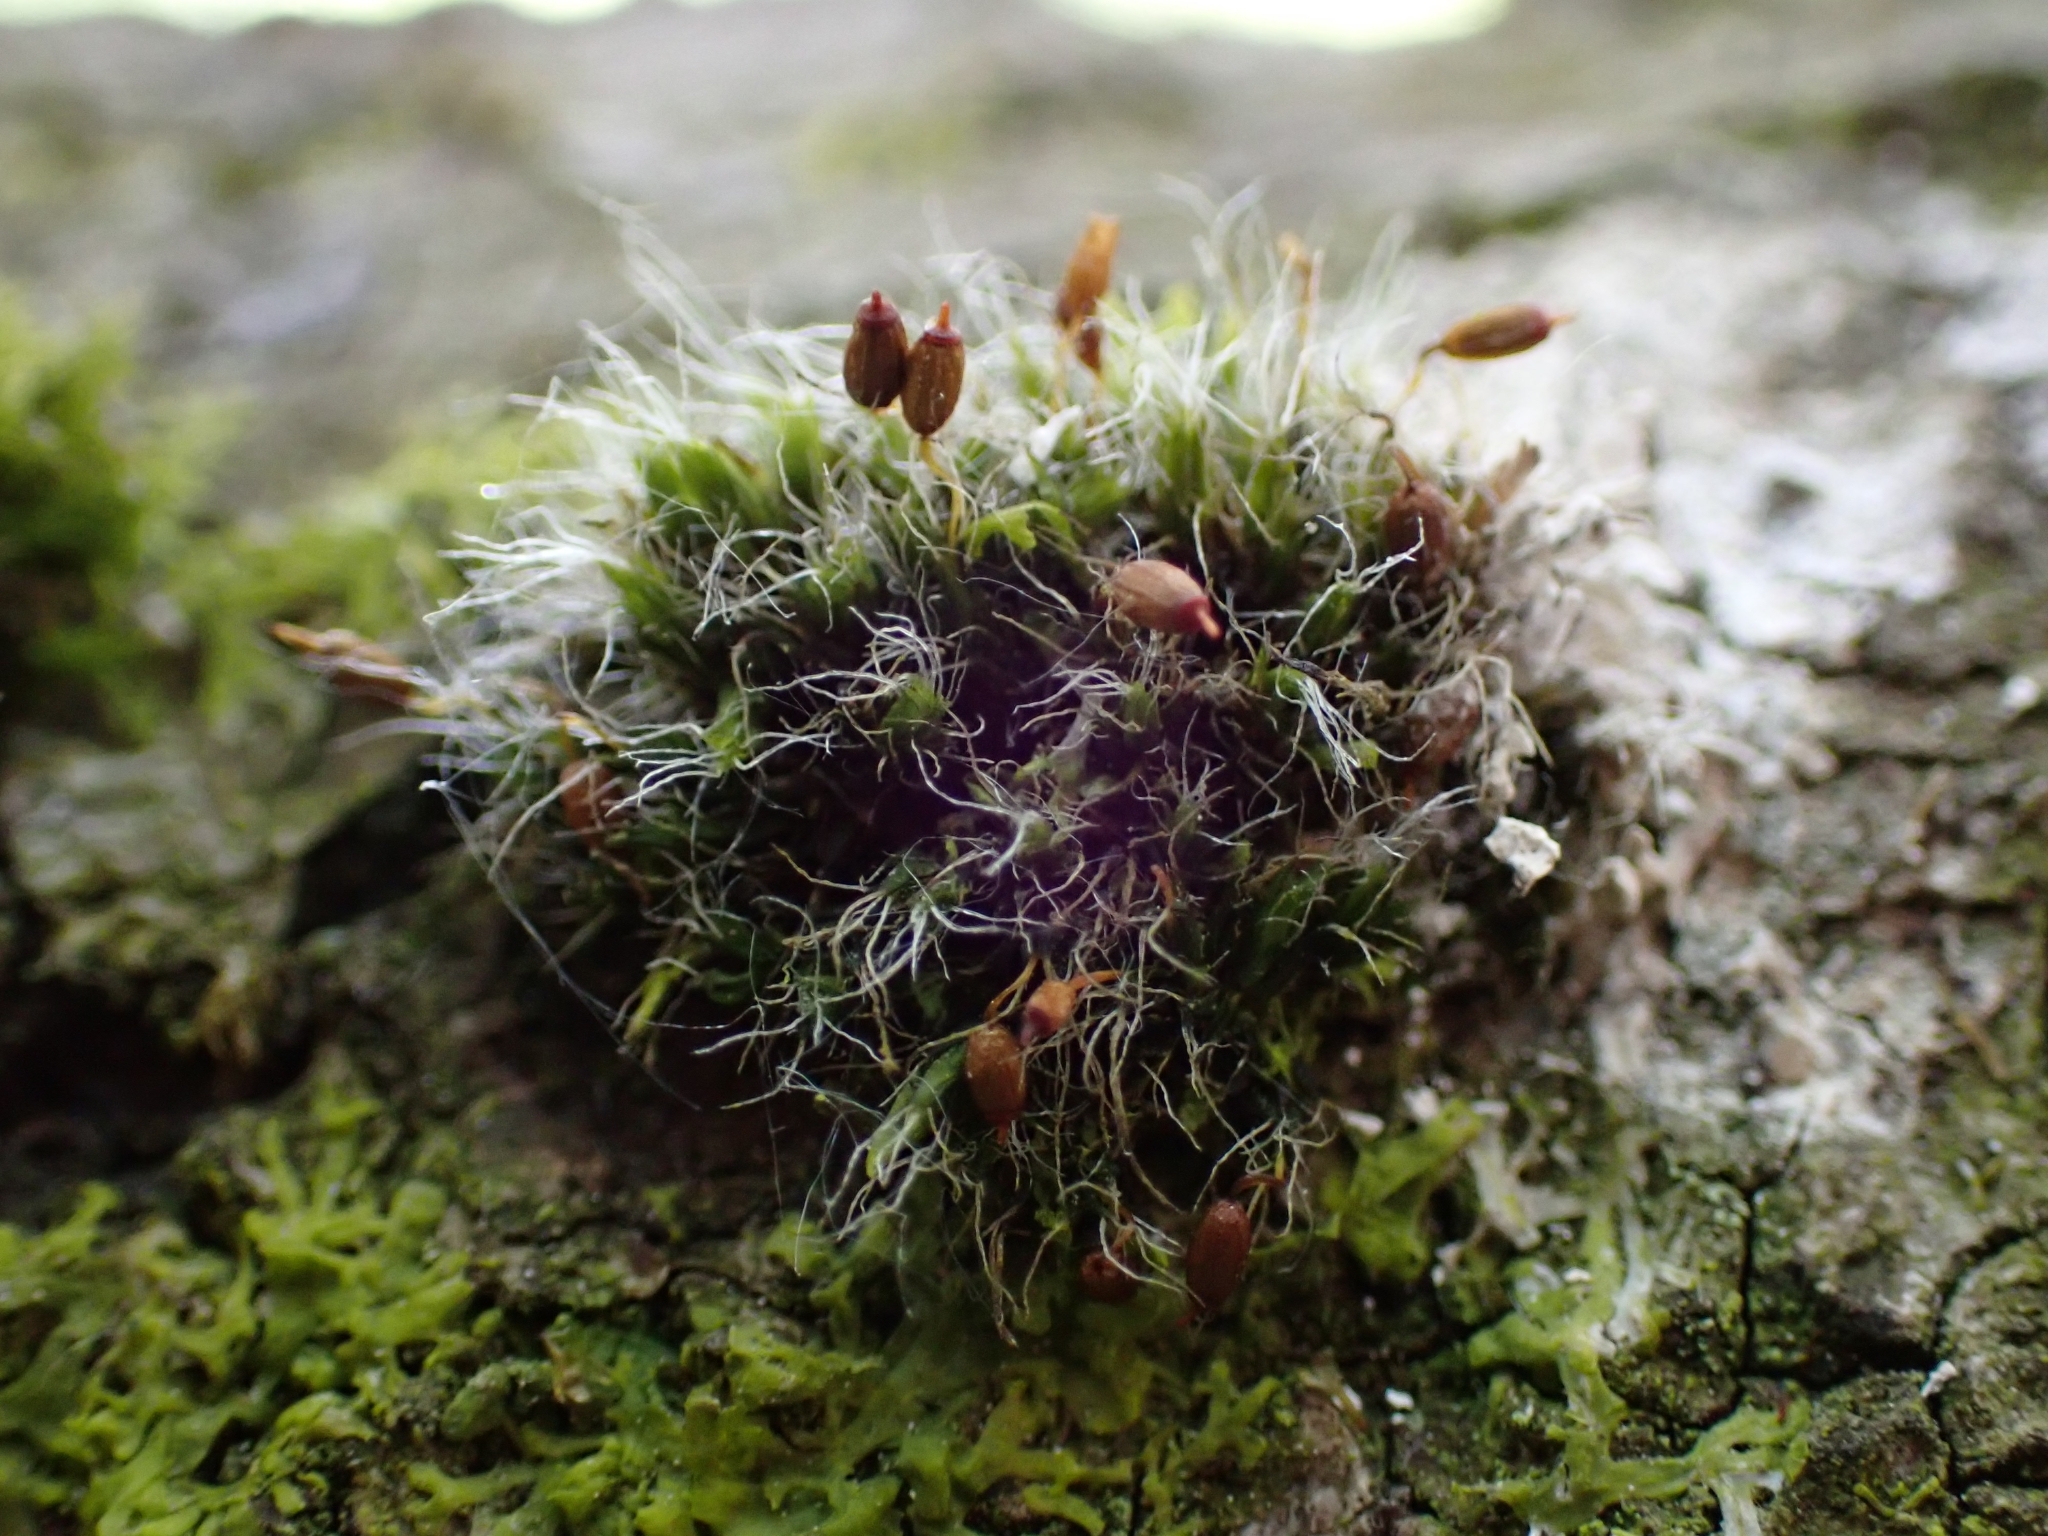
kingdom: Plantae
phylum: Bryophyta
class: Bryopsida
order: Grimmiales
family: Grimmiaceae
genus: Grimmia
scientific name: Grimmia pulvinata
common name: Grey-cushioned grimmia
